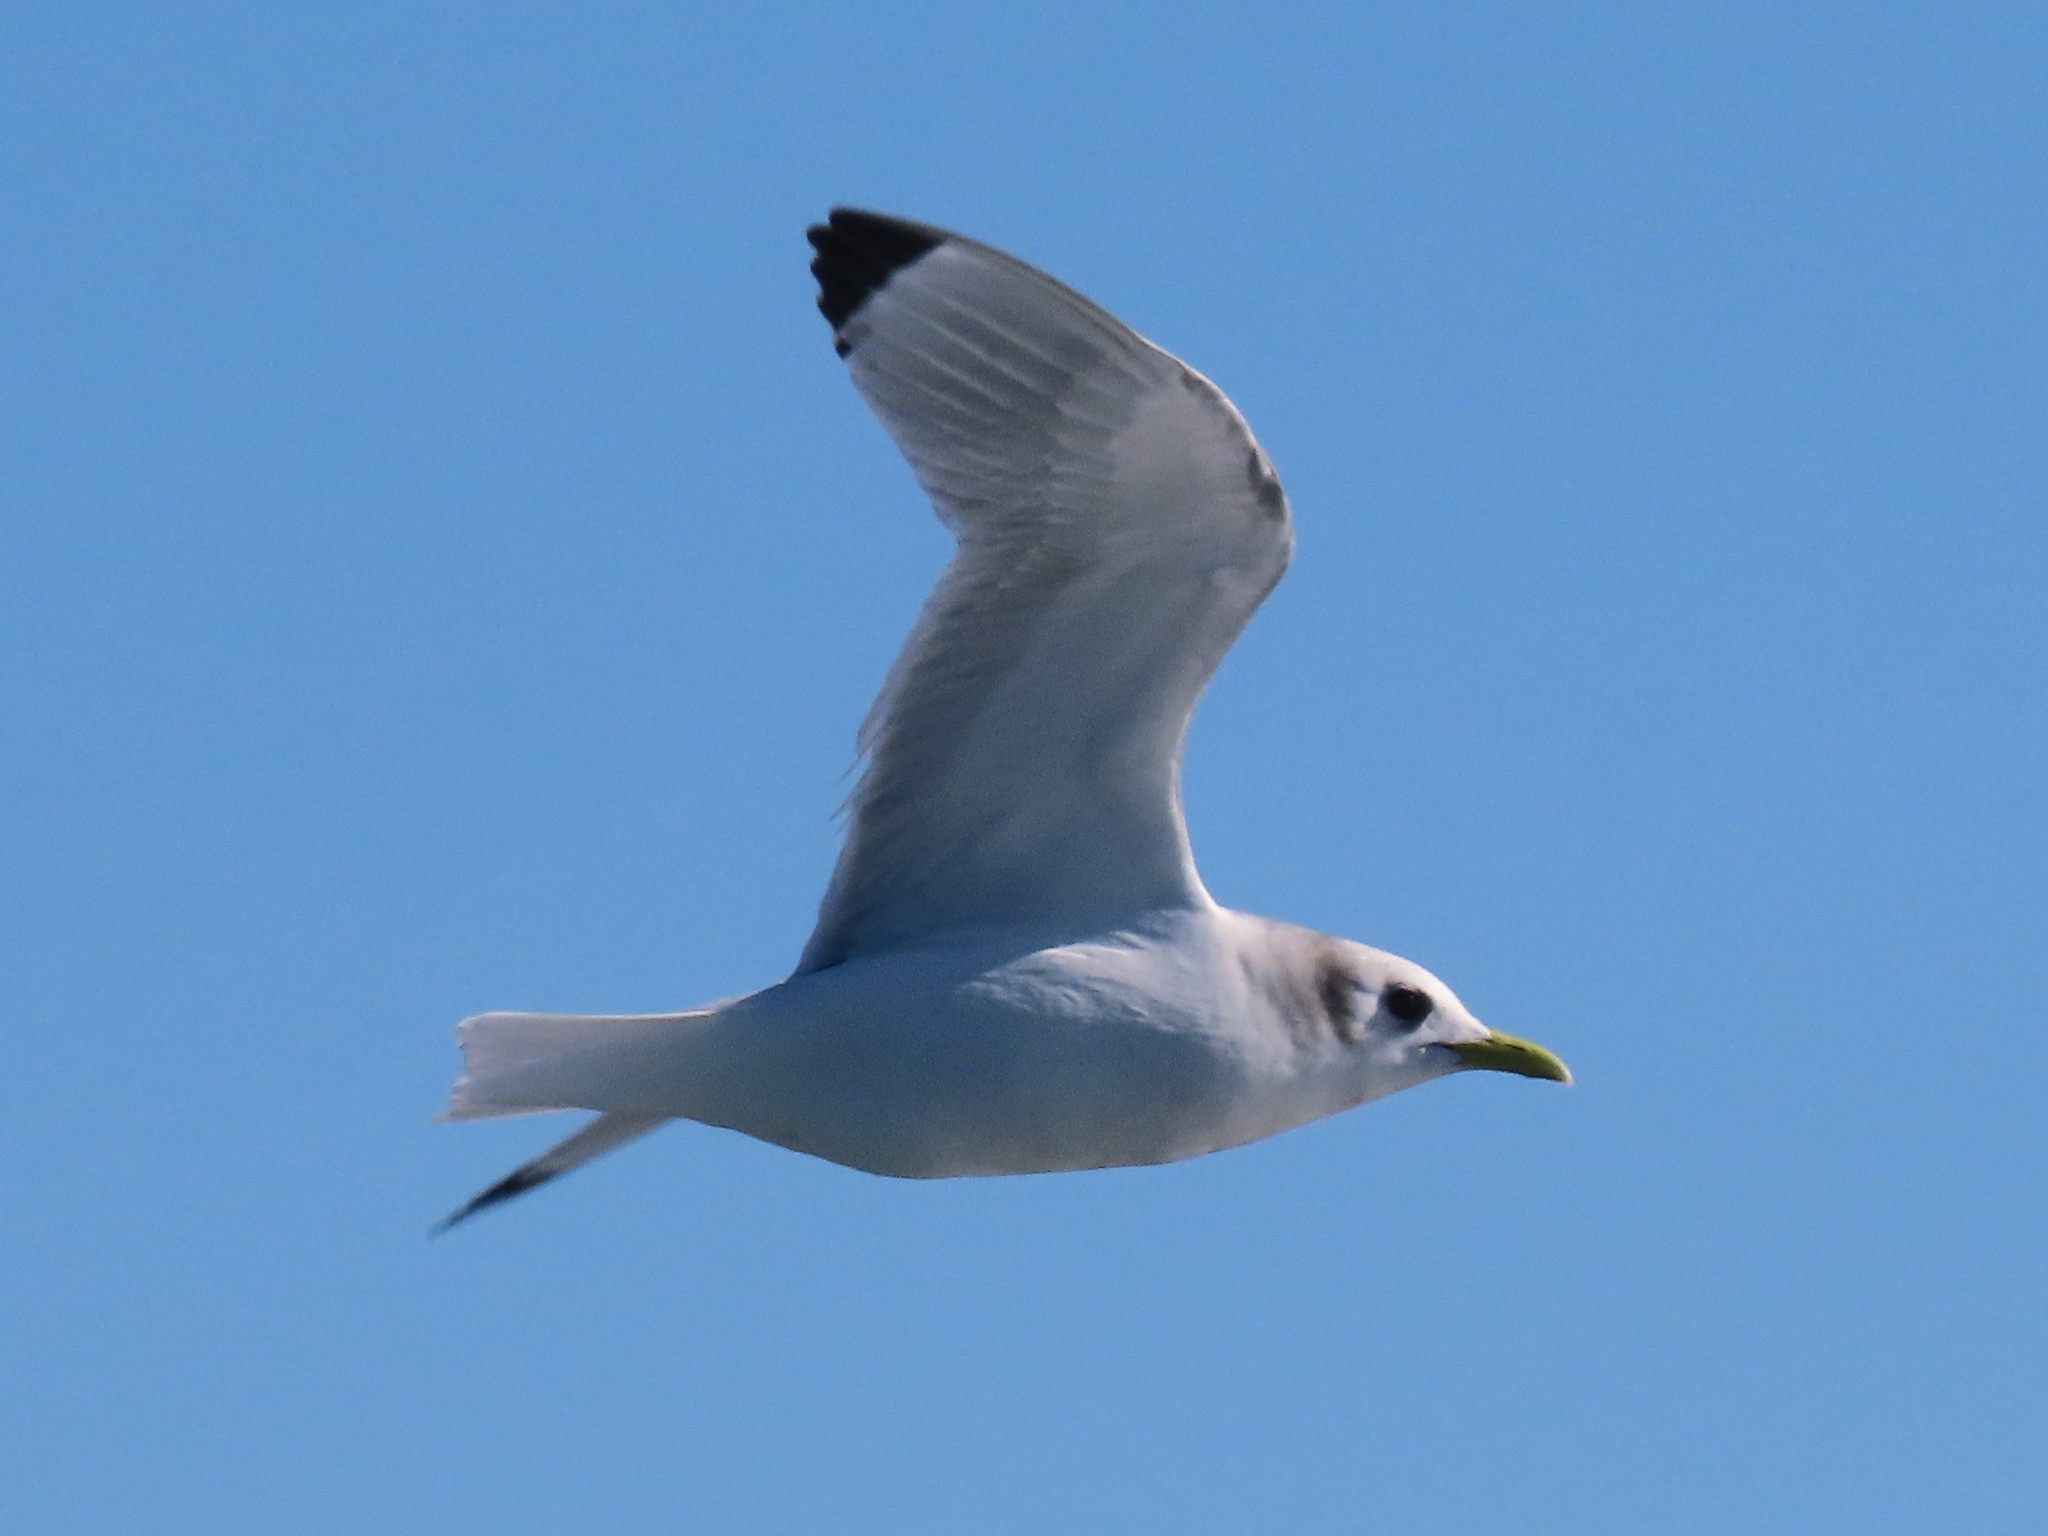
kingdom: Animalia
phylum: Chordata
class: Aves
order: Charadriiformes
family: Laridae
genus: Rissa
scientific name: Rissa tridactyla
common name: Black-legged kittiwake
